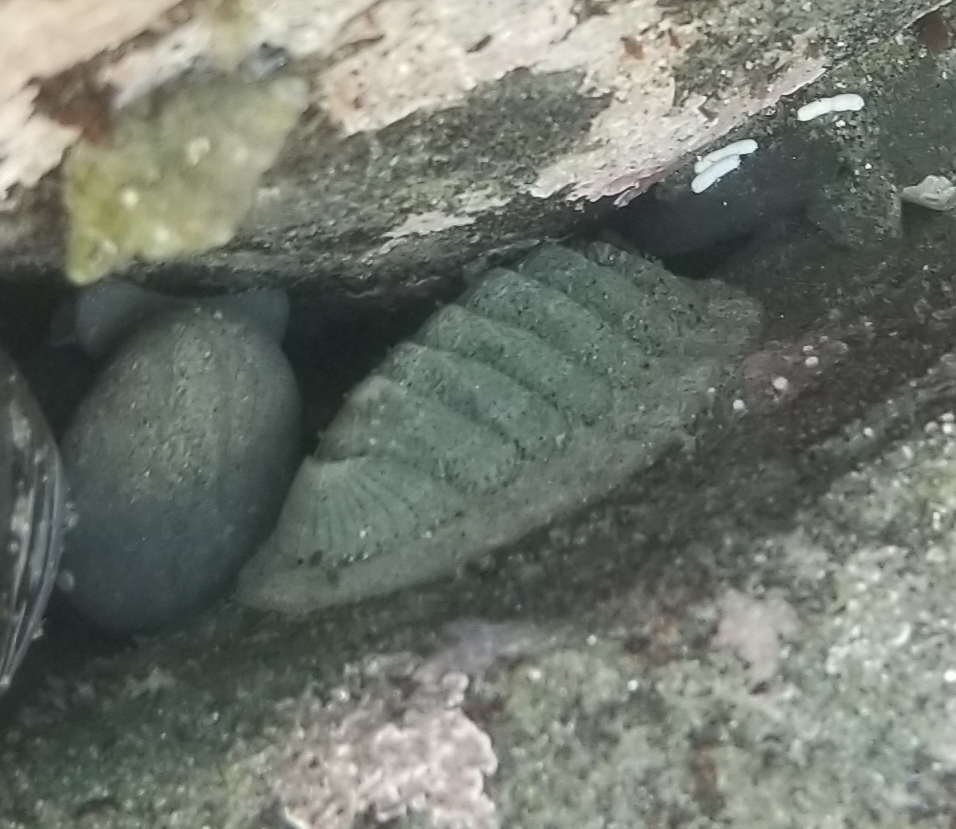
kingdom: Animalia
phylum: Mollusca
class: Polyplacophora
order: Chitonida
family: Ischnochitonidae
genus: Lepidozona
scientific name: Lepidozona cooperi
